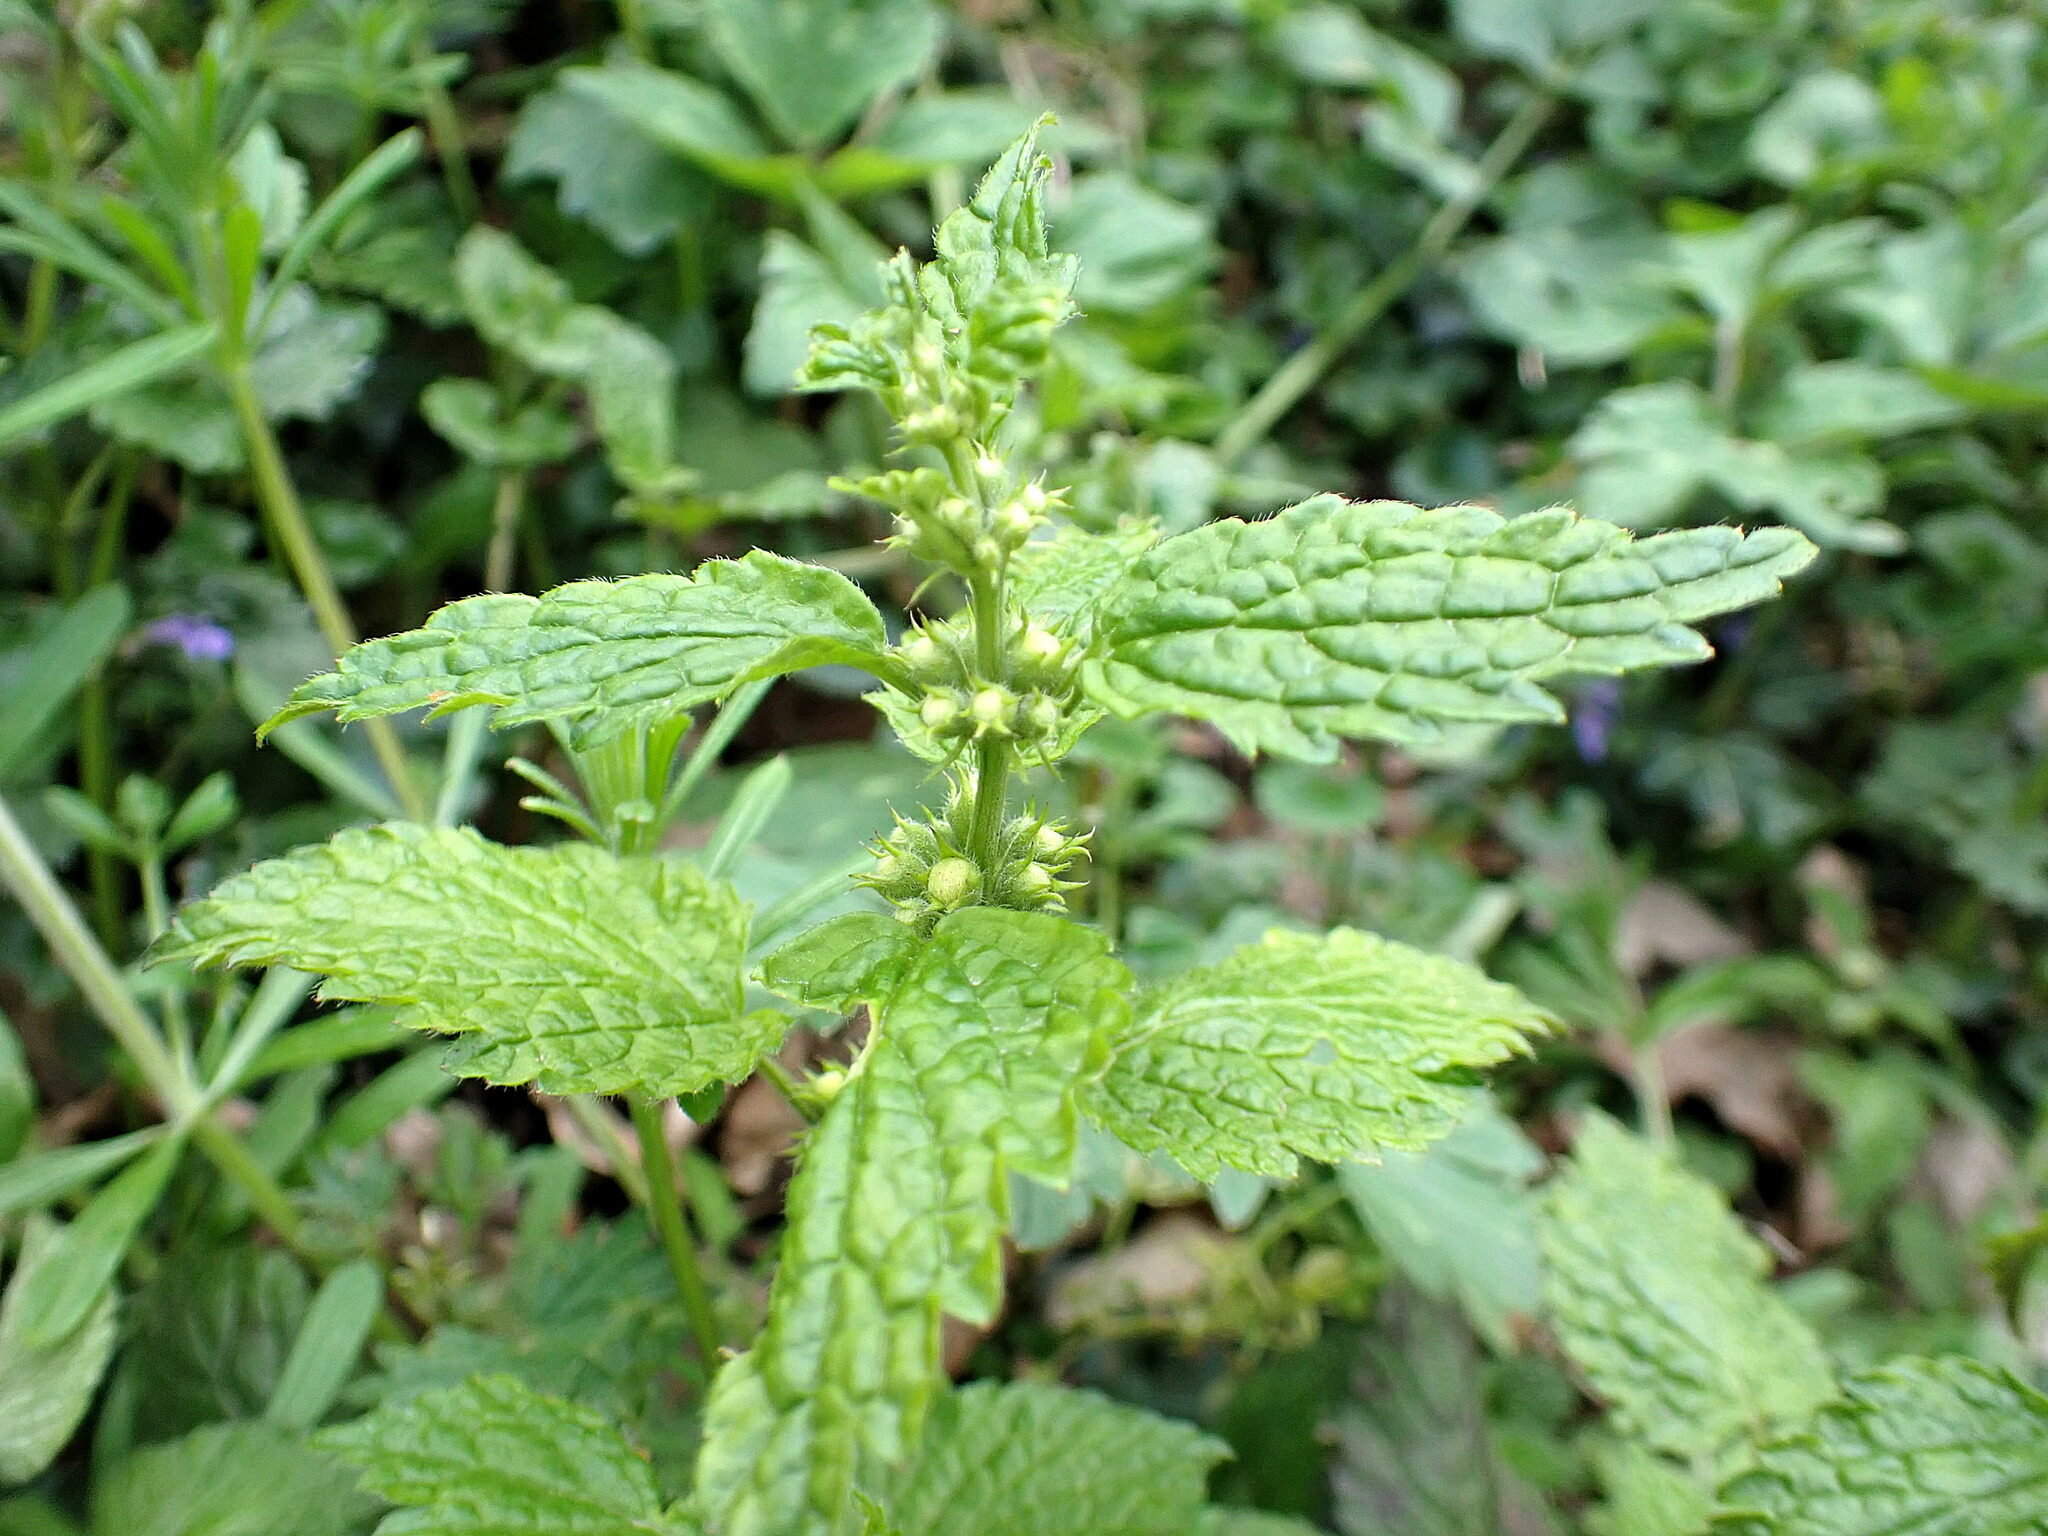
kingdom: Plantae
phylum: Tracheophyta
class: Magnoliopsida
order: Lamiales
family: Lamiaceae
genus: Lamium
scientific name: Lamium galeobdolon
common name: Yellow archangel
